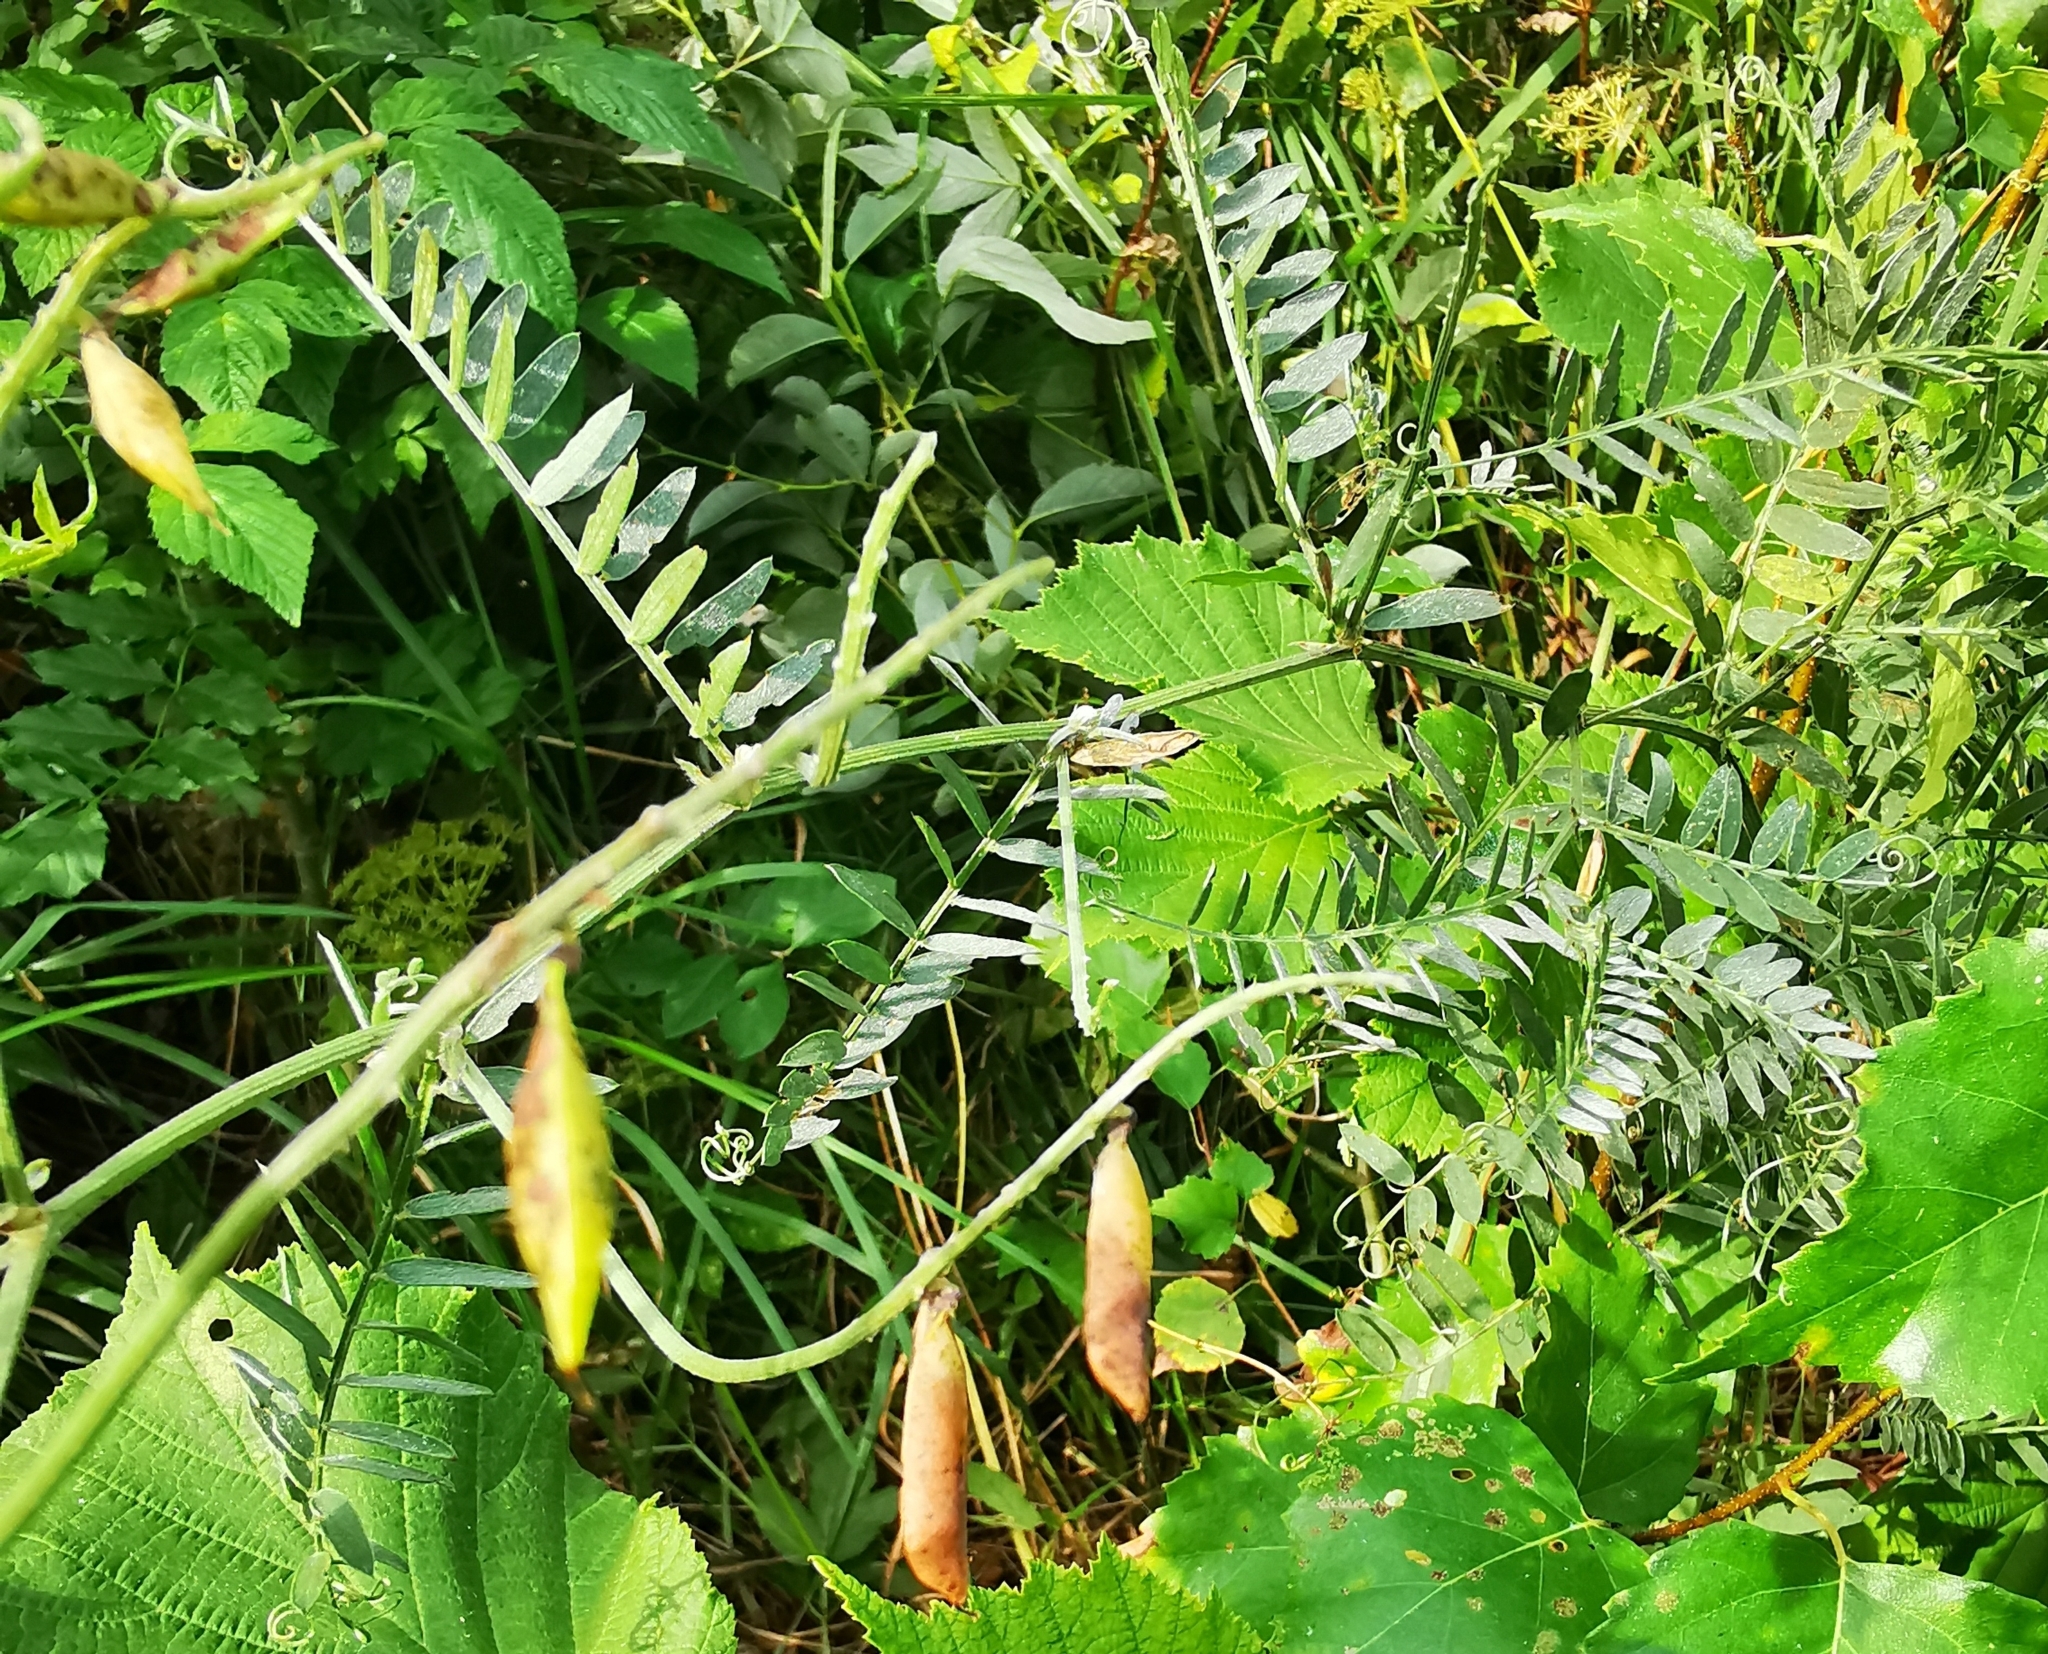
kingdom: Plantae
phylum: Tracheophyta
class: Magnoliopsida
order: Fabales
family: Fabaceae
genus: Vicia
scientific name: Vicia cracca
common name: Bird vetch
